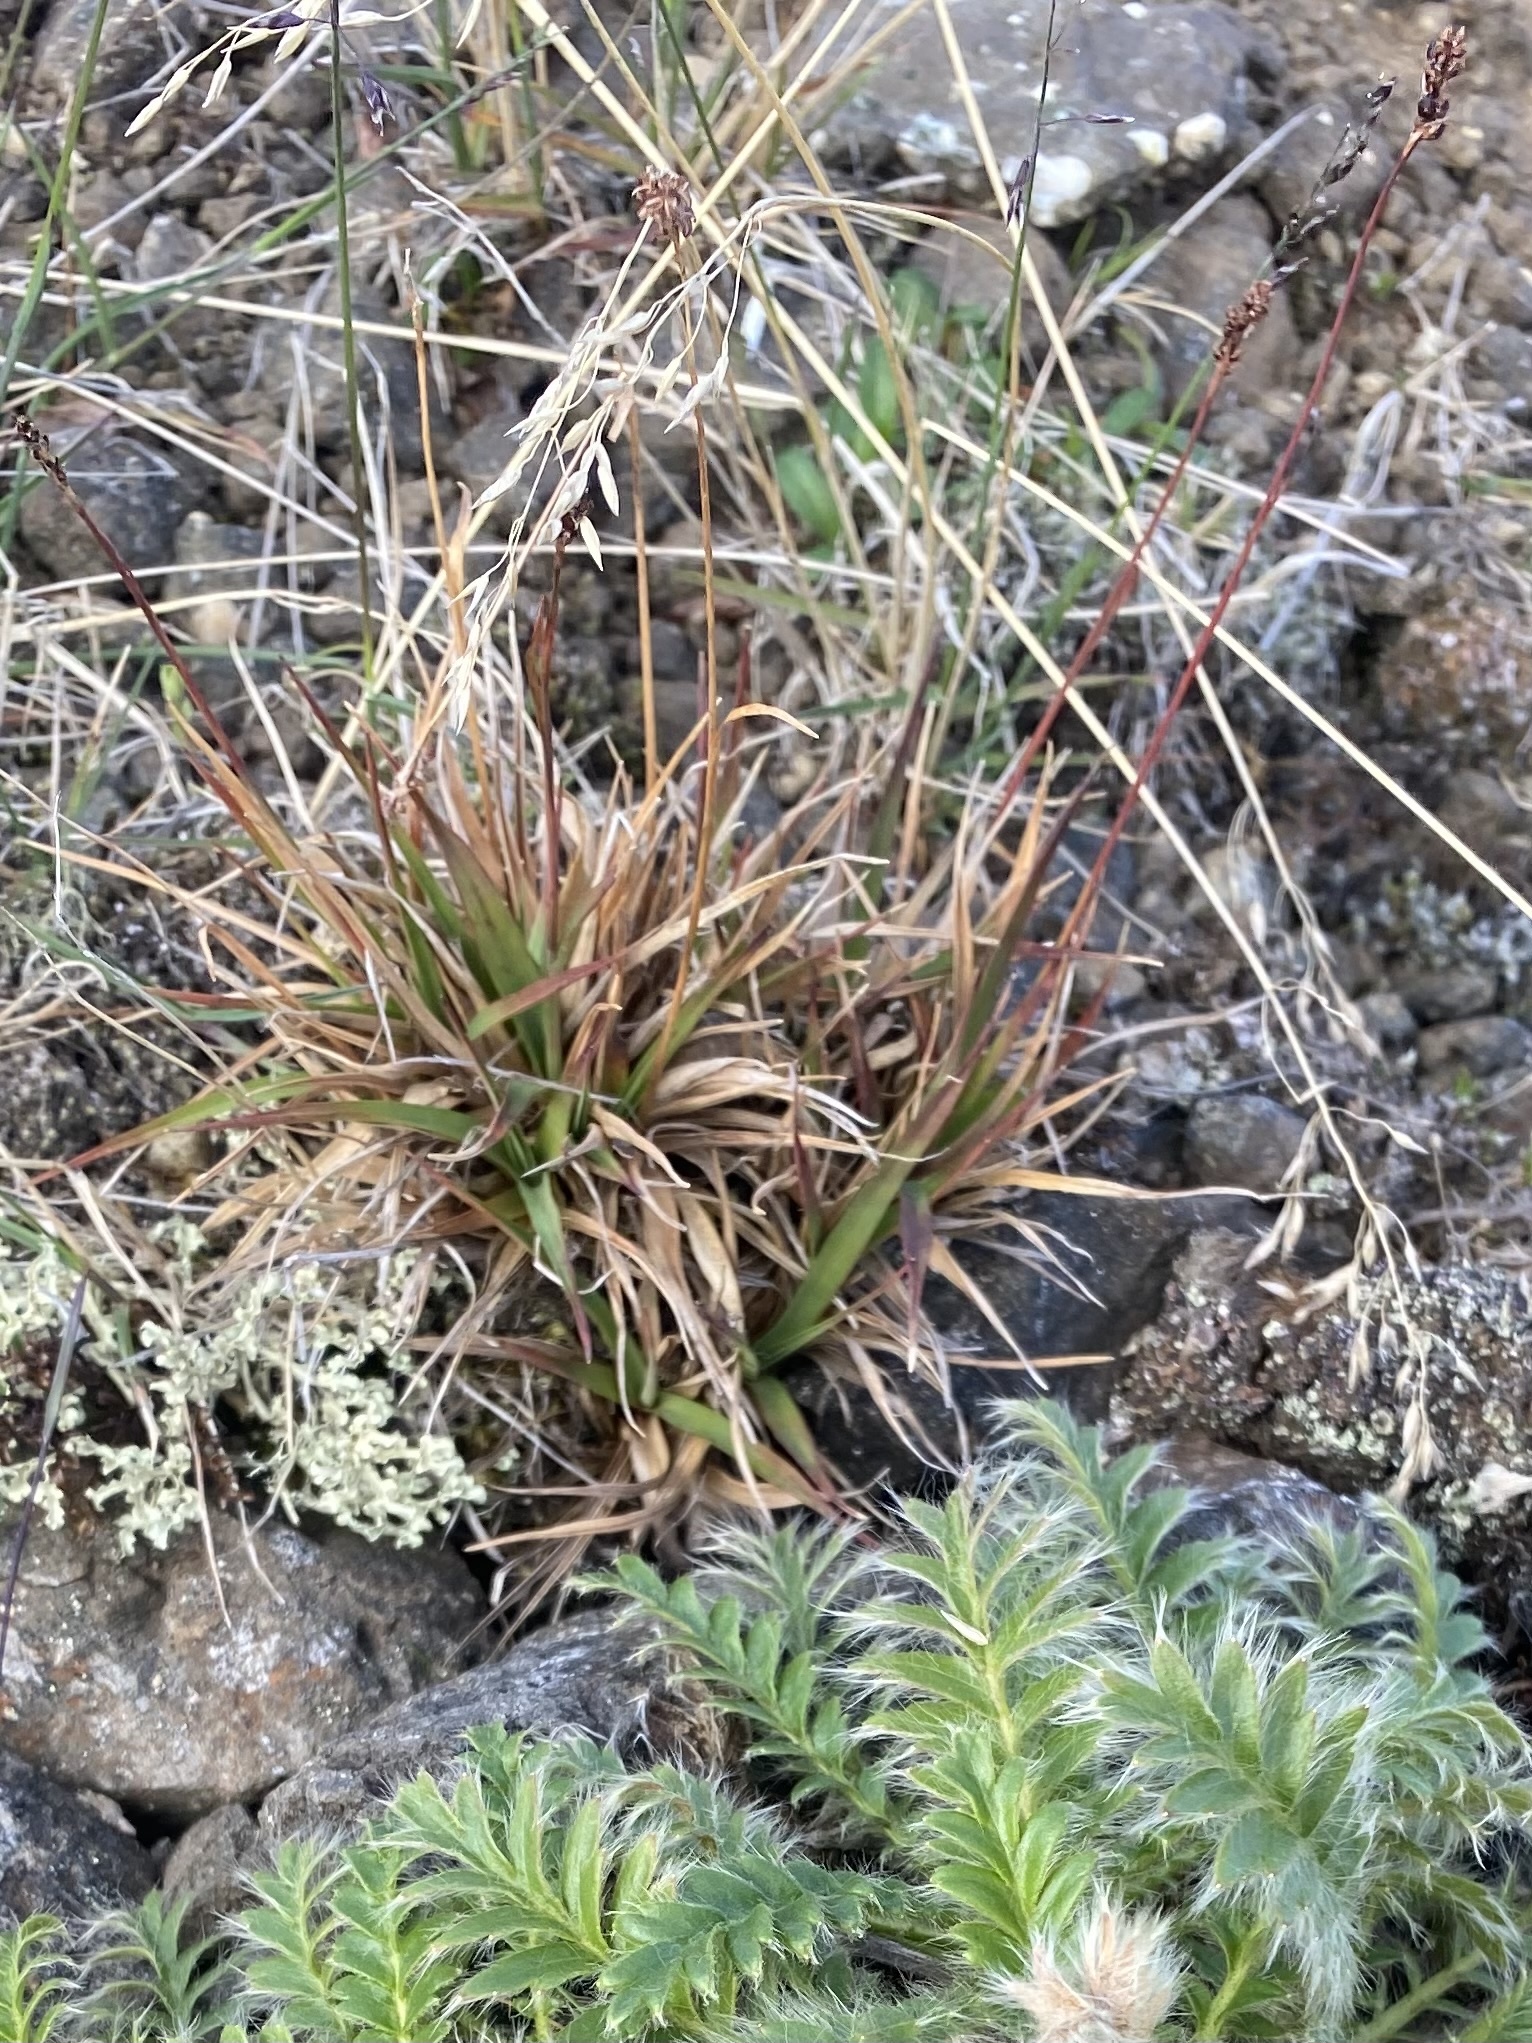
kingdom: Plantae
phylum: Tracheophyta
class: Liliopsida
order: Poales
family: Juncaceae
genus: Luzula
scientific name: Luzula nivalis
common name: Arctic woodrush
